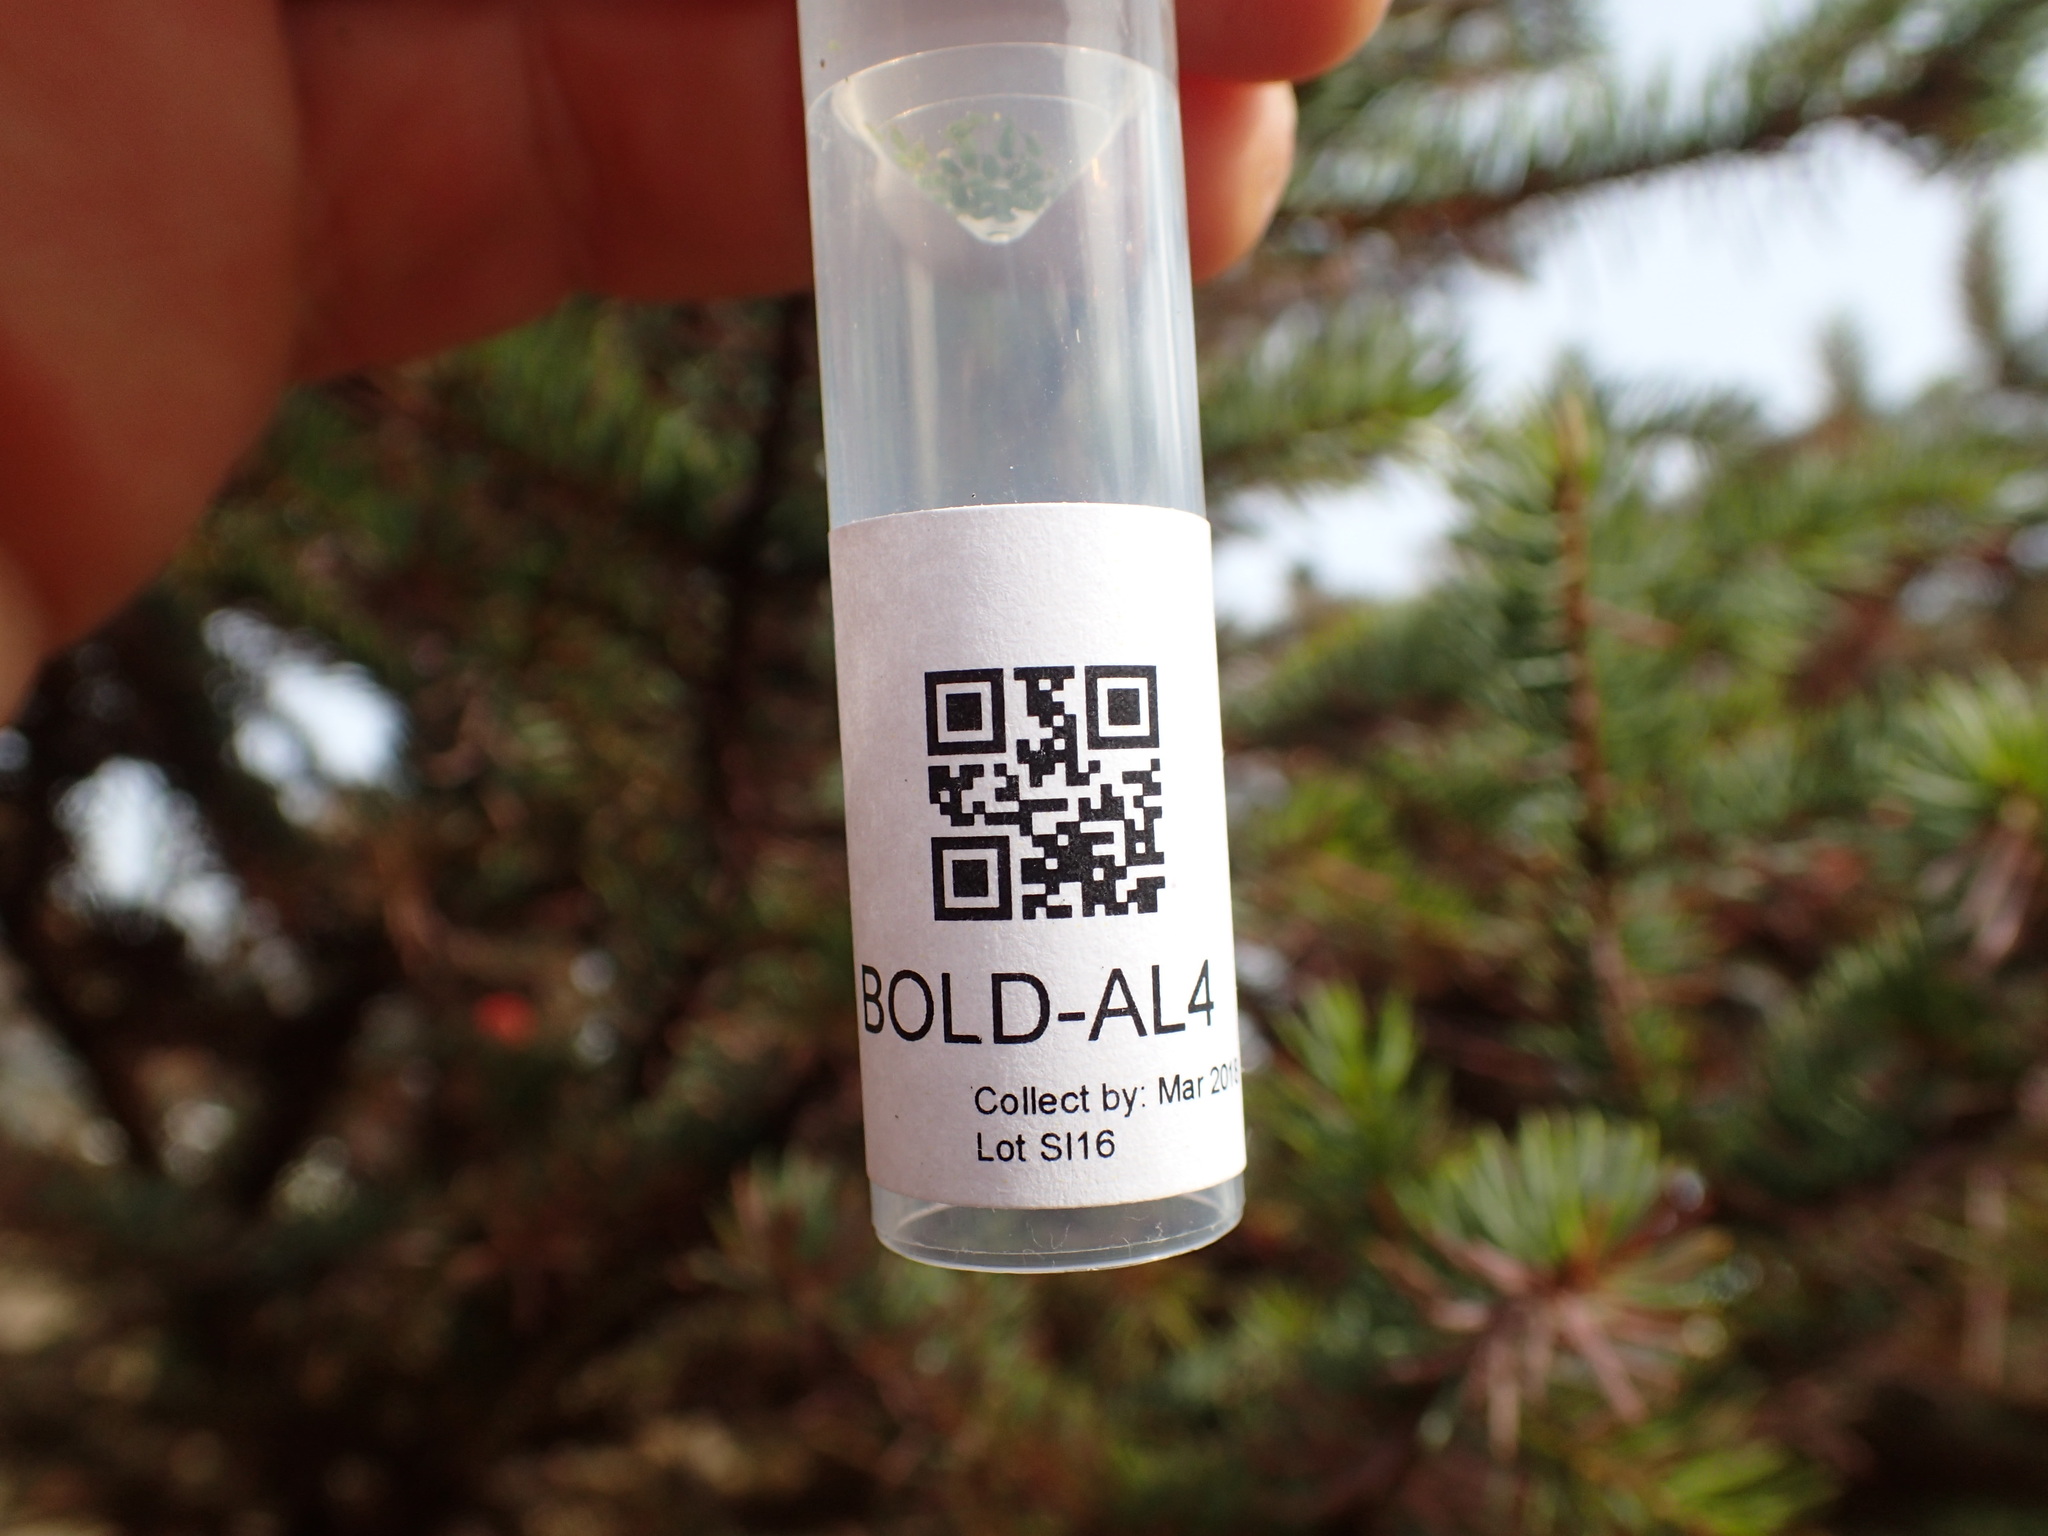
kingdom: Animalia
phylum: Arthropoda
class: Insecta
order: Hemiptera
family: Aphididae
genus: Elatobium
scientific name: Elatobium abietinum
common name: Spruce aphid
